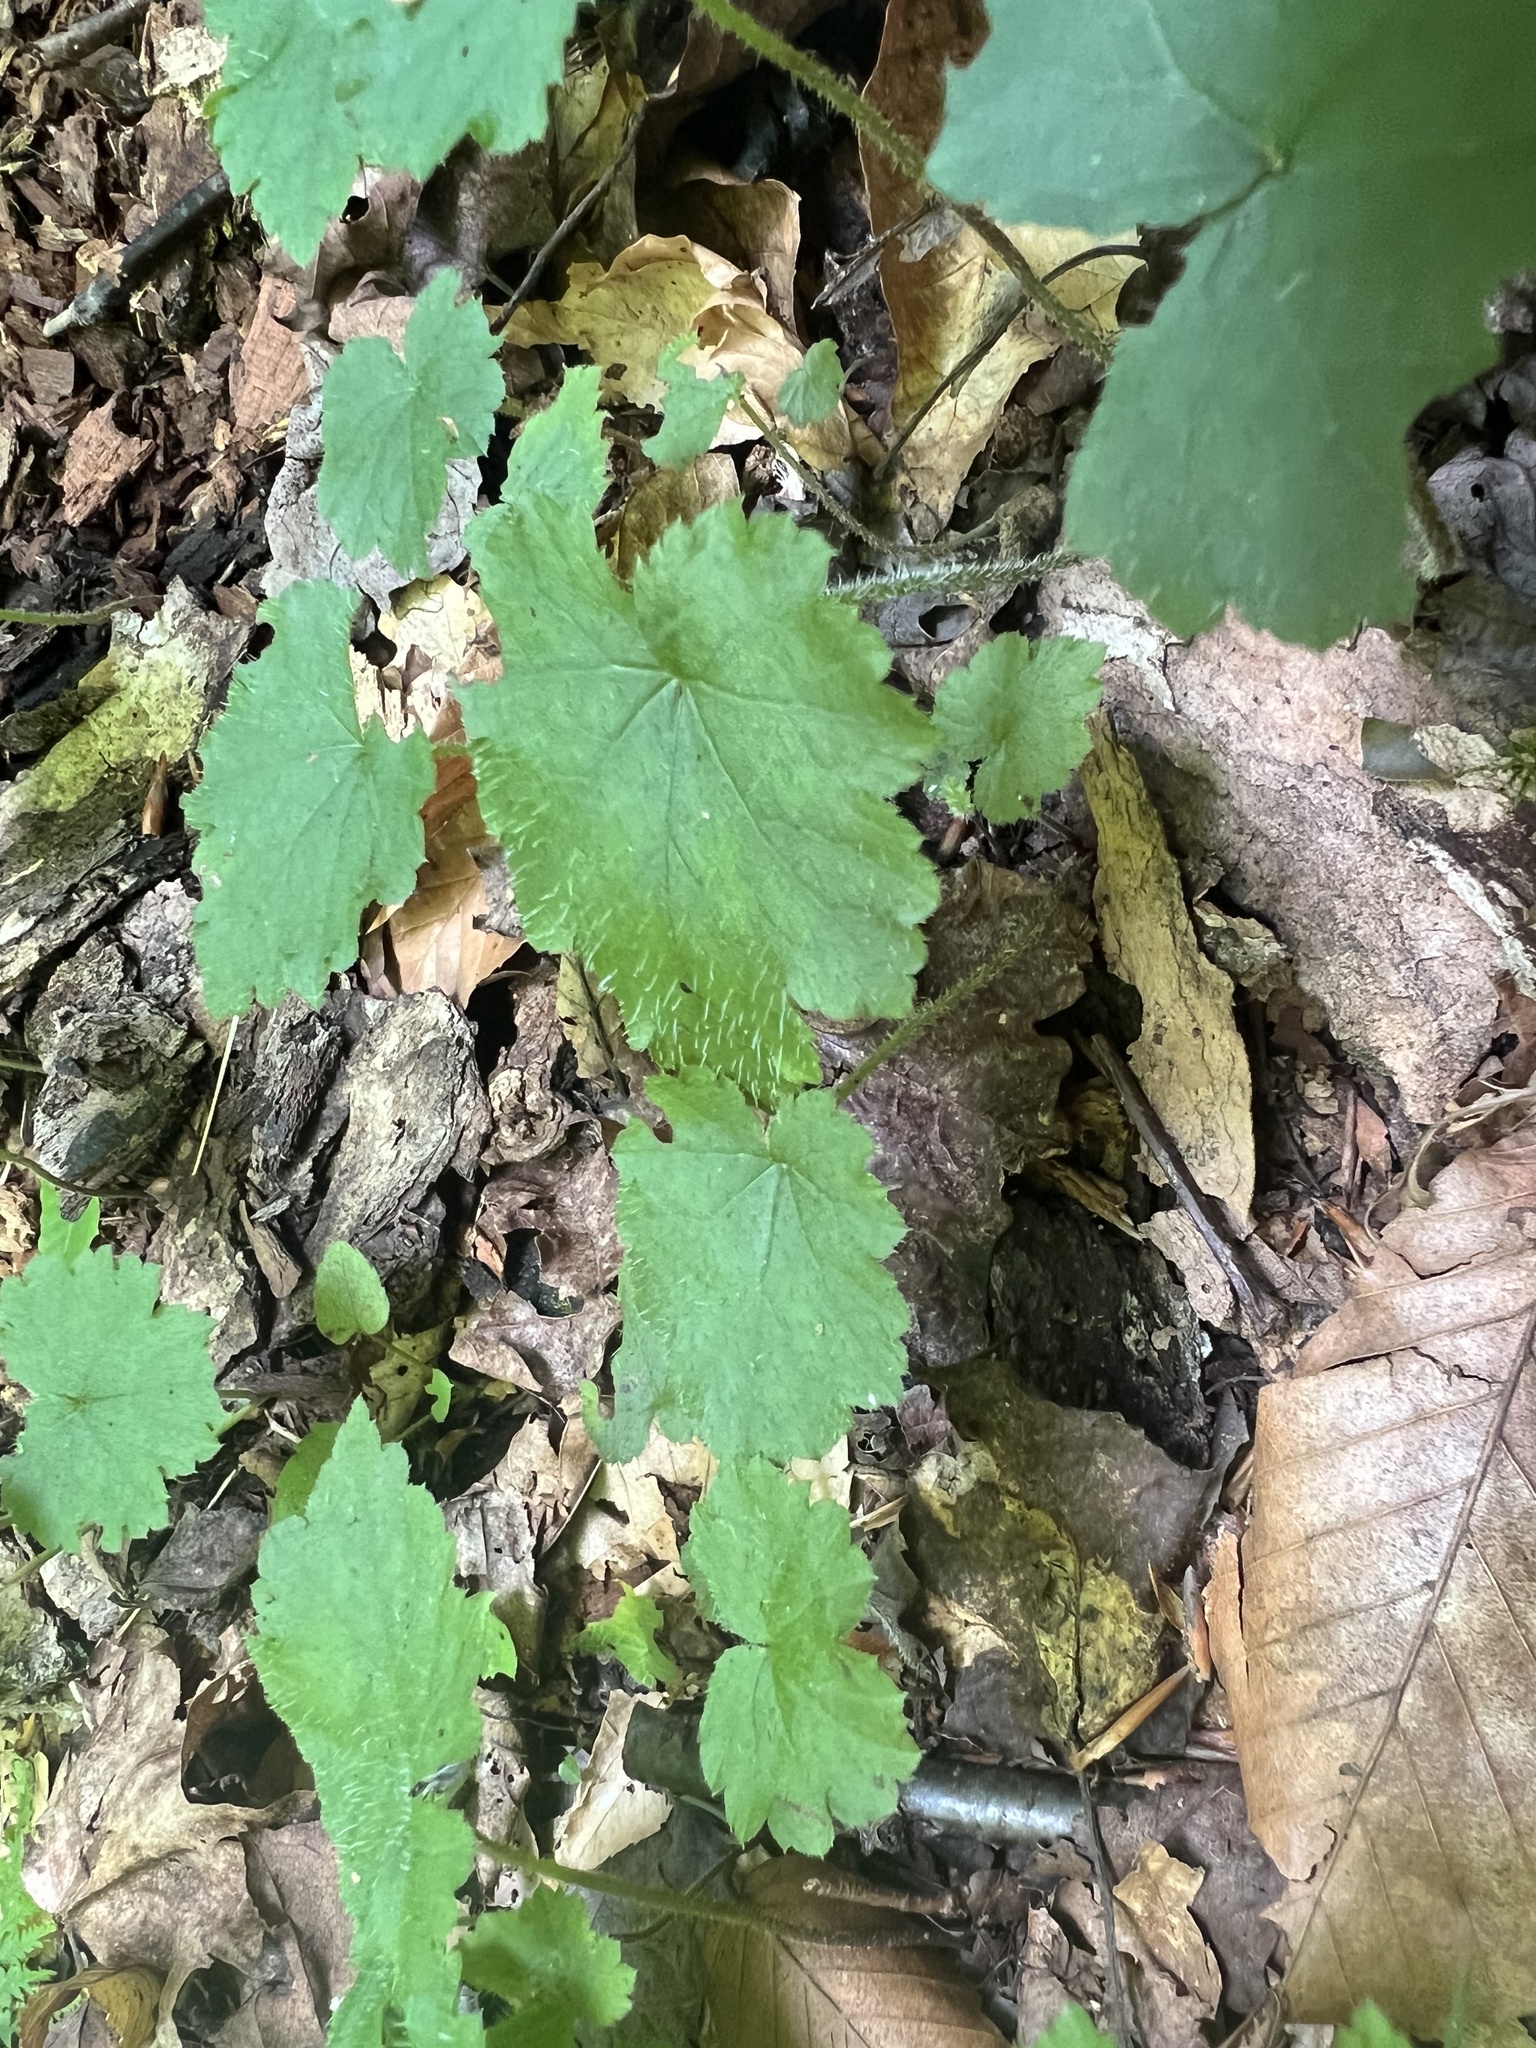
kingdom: Plantae
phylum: Tracheophyta
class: Magnoliopsida
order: Saxifragales
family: Saxifragaceae
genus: Tiarella
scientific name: Tiarella stolonifera
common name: Stoloniferous foamflower
